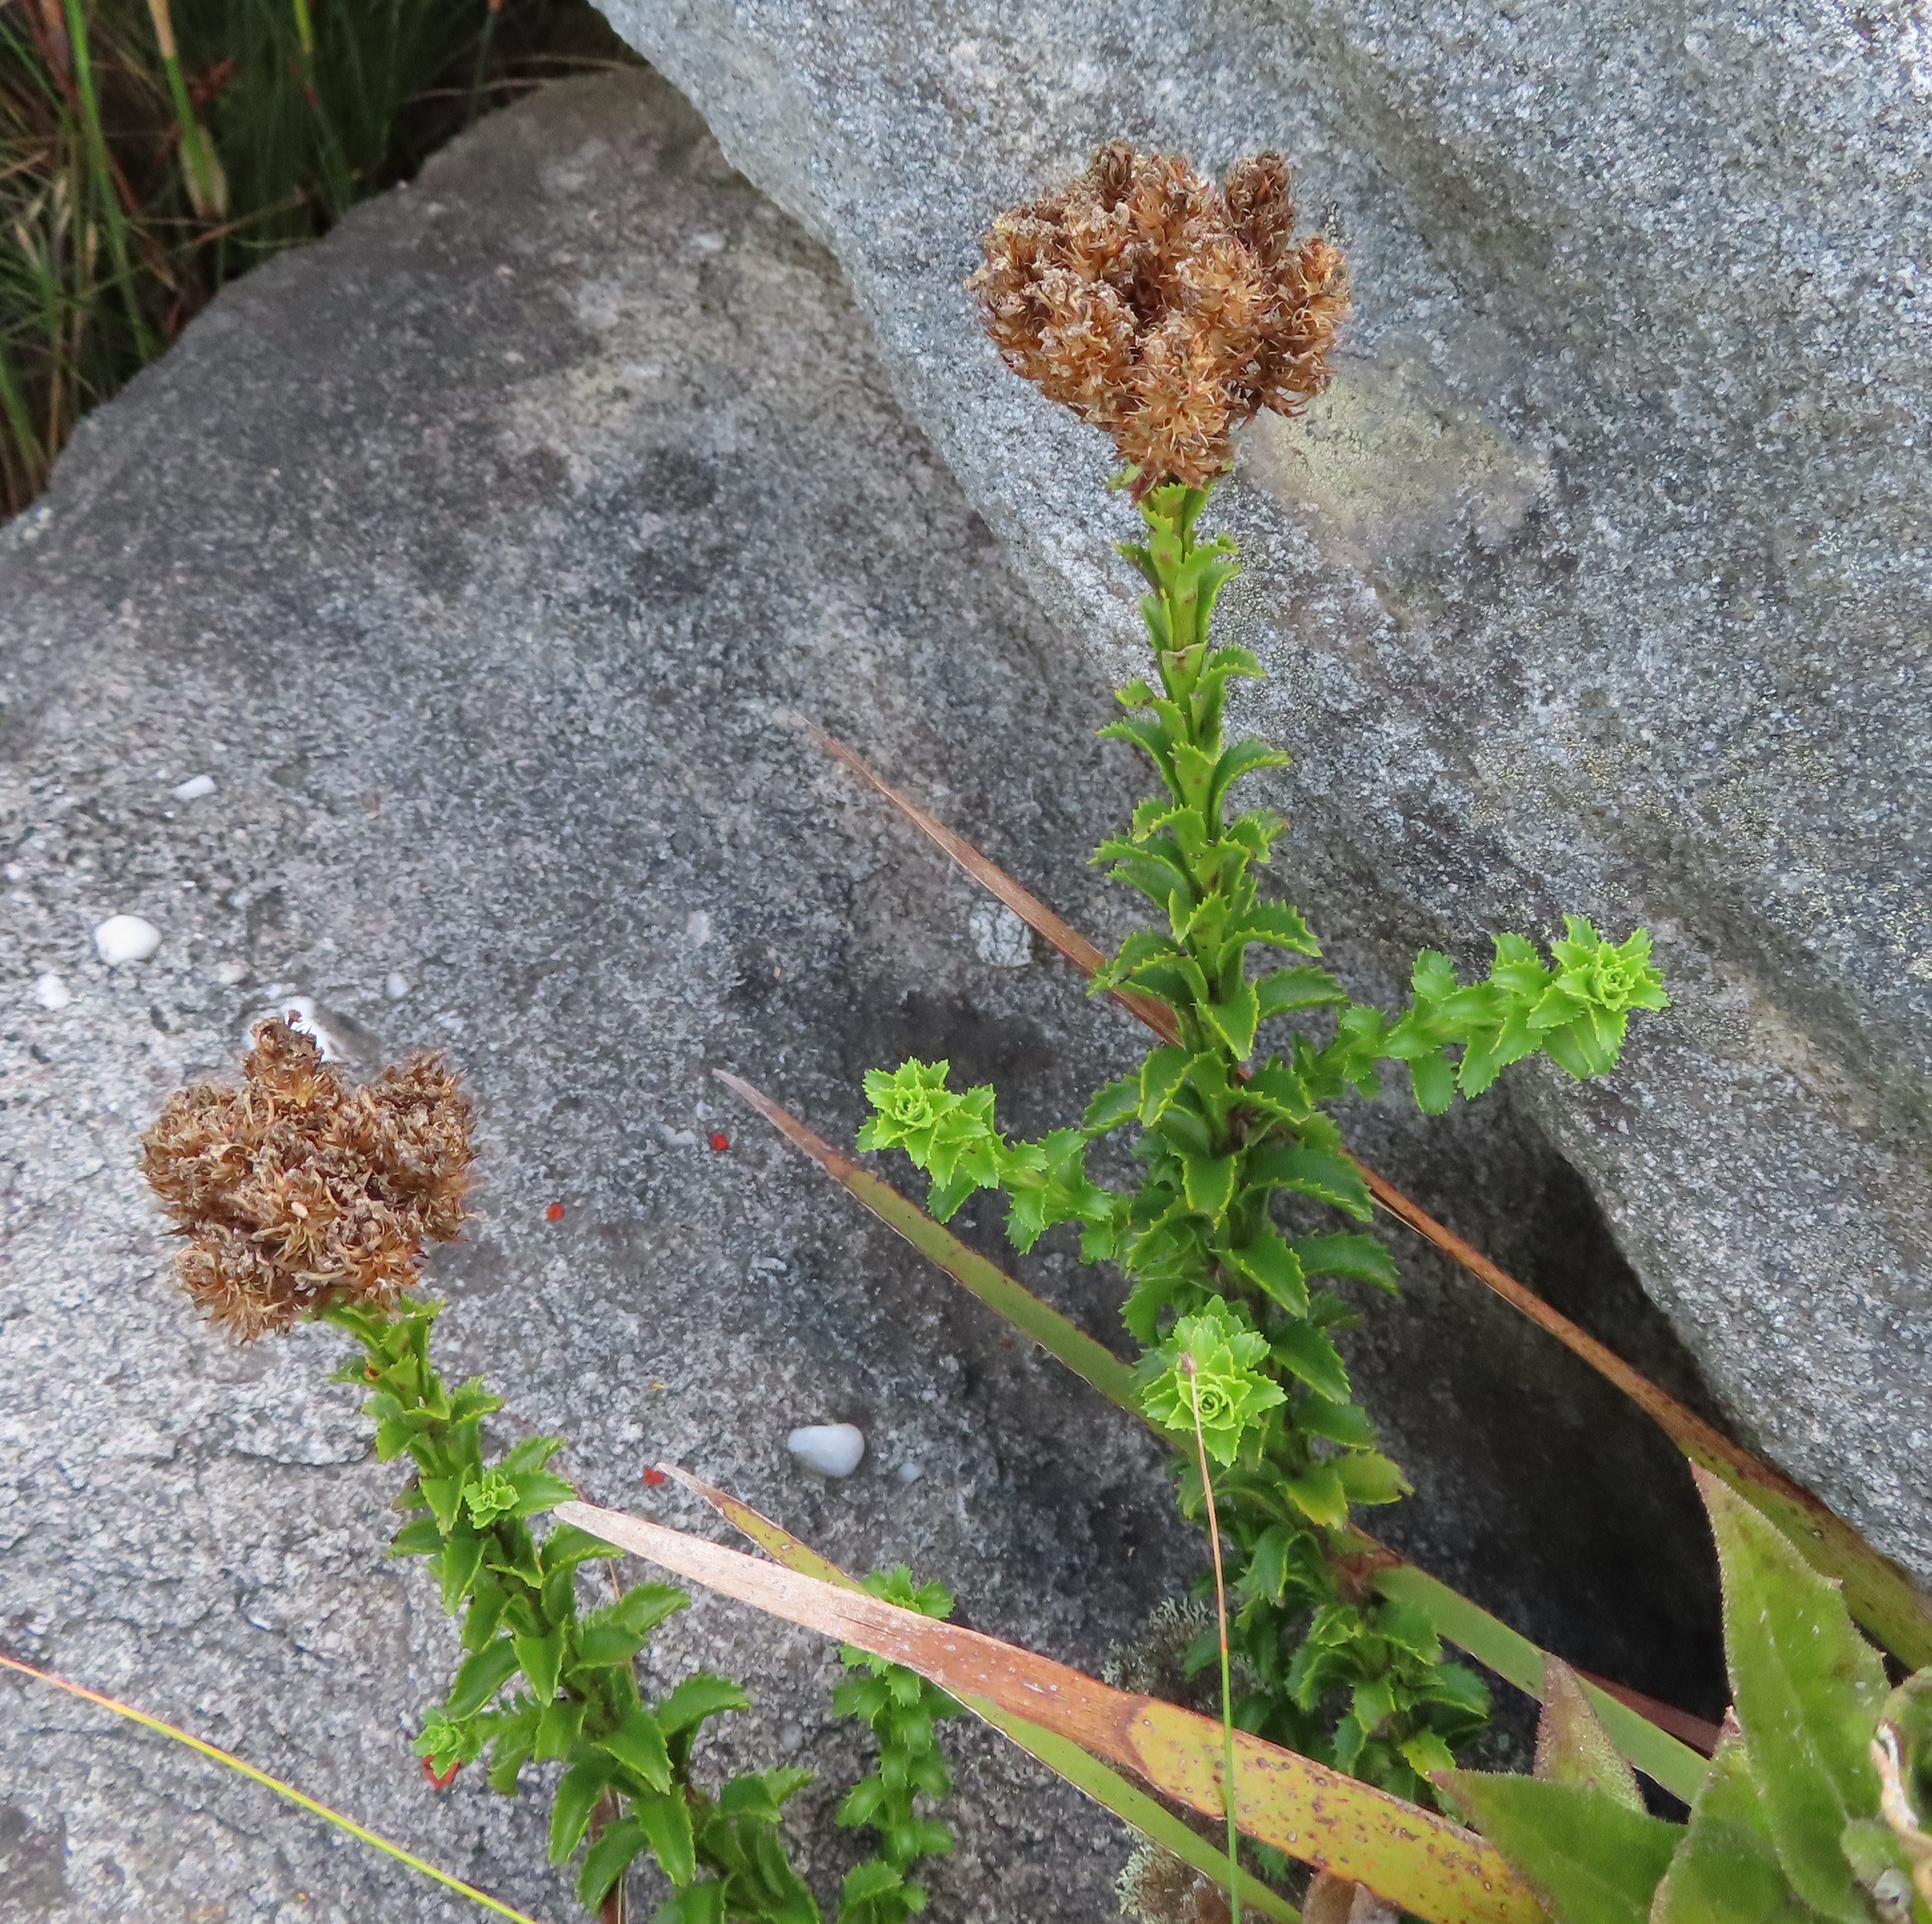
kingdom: Plantae
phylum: Tracheophyta
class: Magnoliopsida
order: Lamiales
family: Scrophulariaceae
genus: Pseudoselago
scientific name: Pseudoselago serrata
